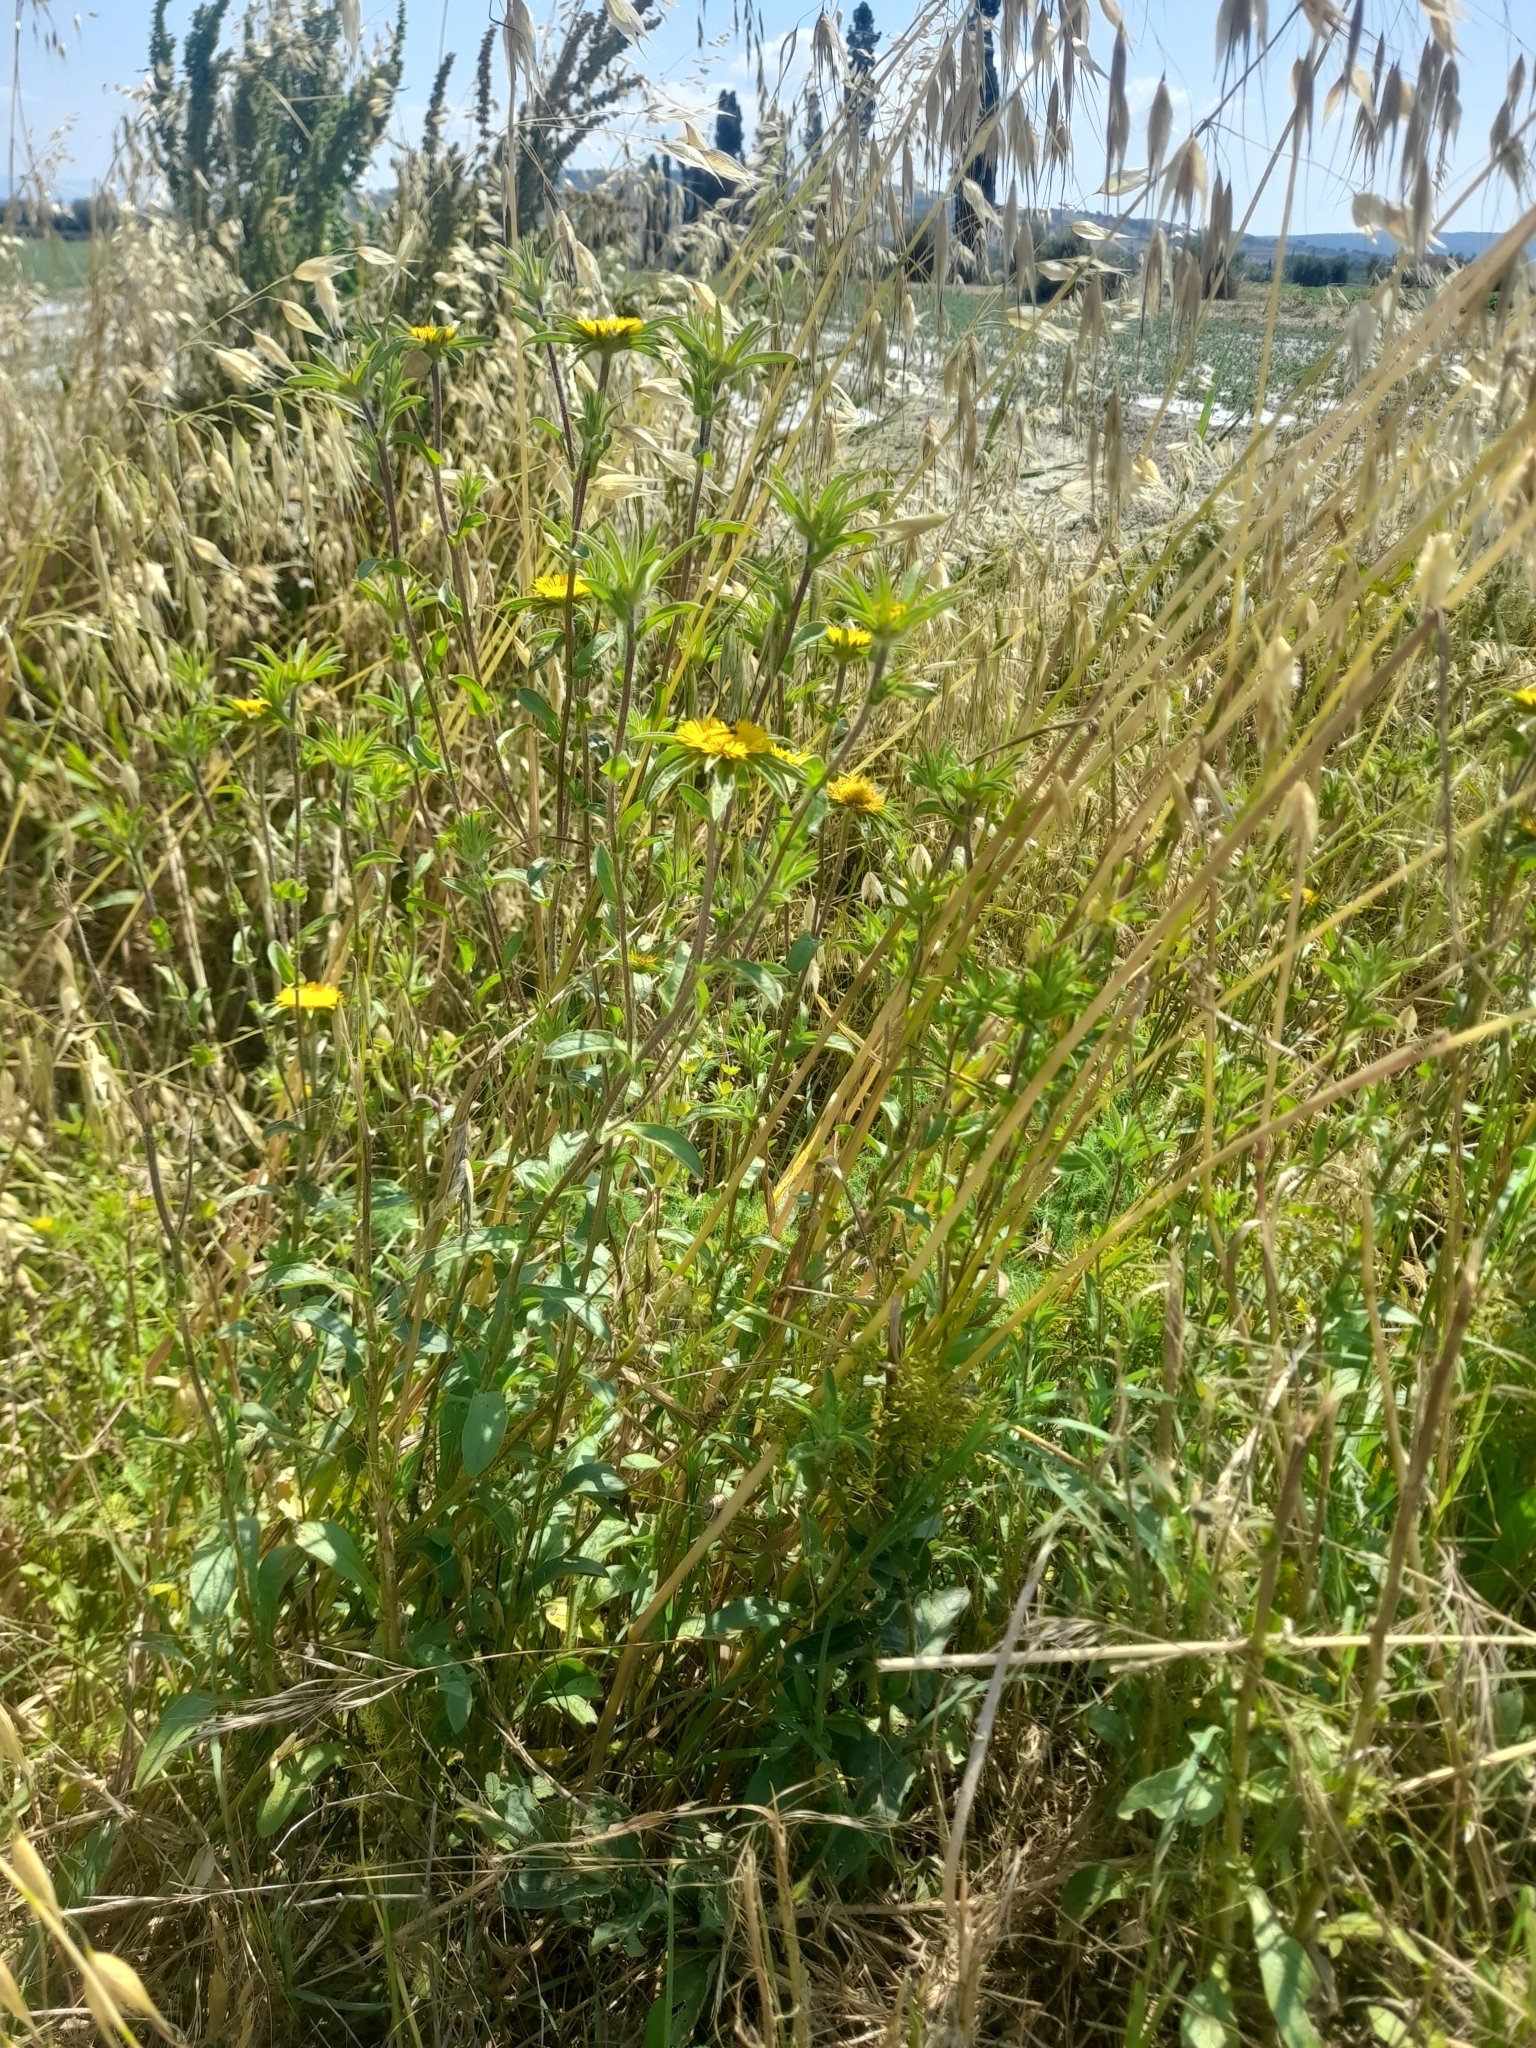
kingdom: Plantae
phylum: Tracheophyta
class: Magnoliopsida
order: Asterales
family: Asteraceae
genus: Pallenis
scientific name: Pallenis spinosa
